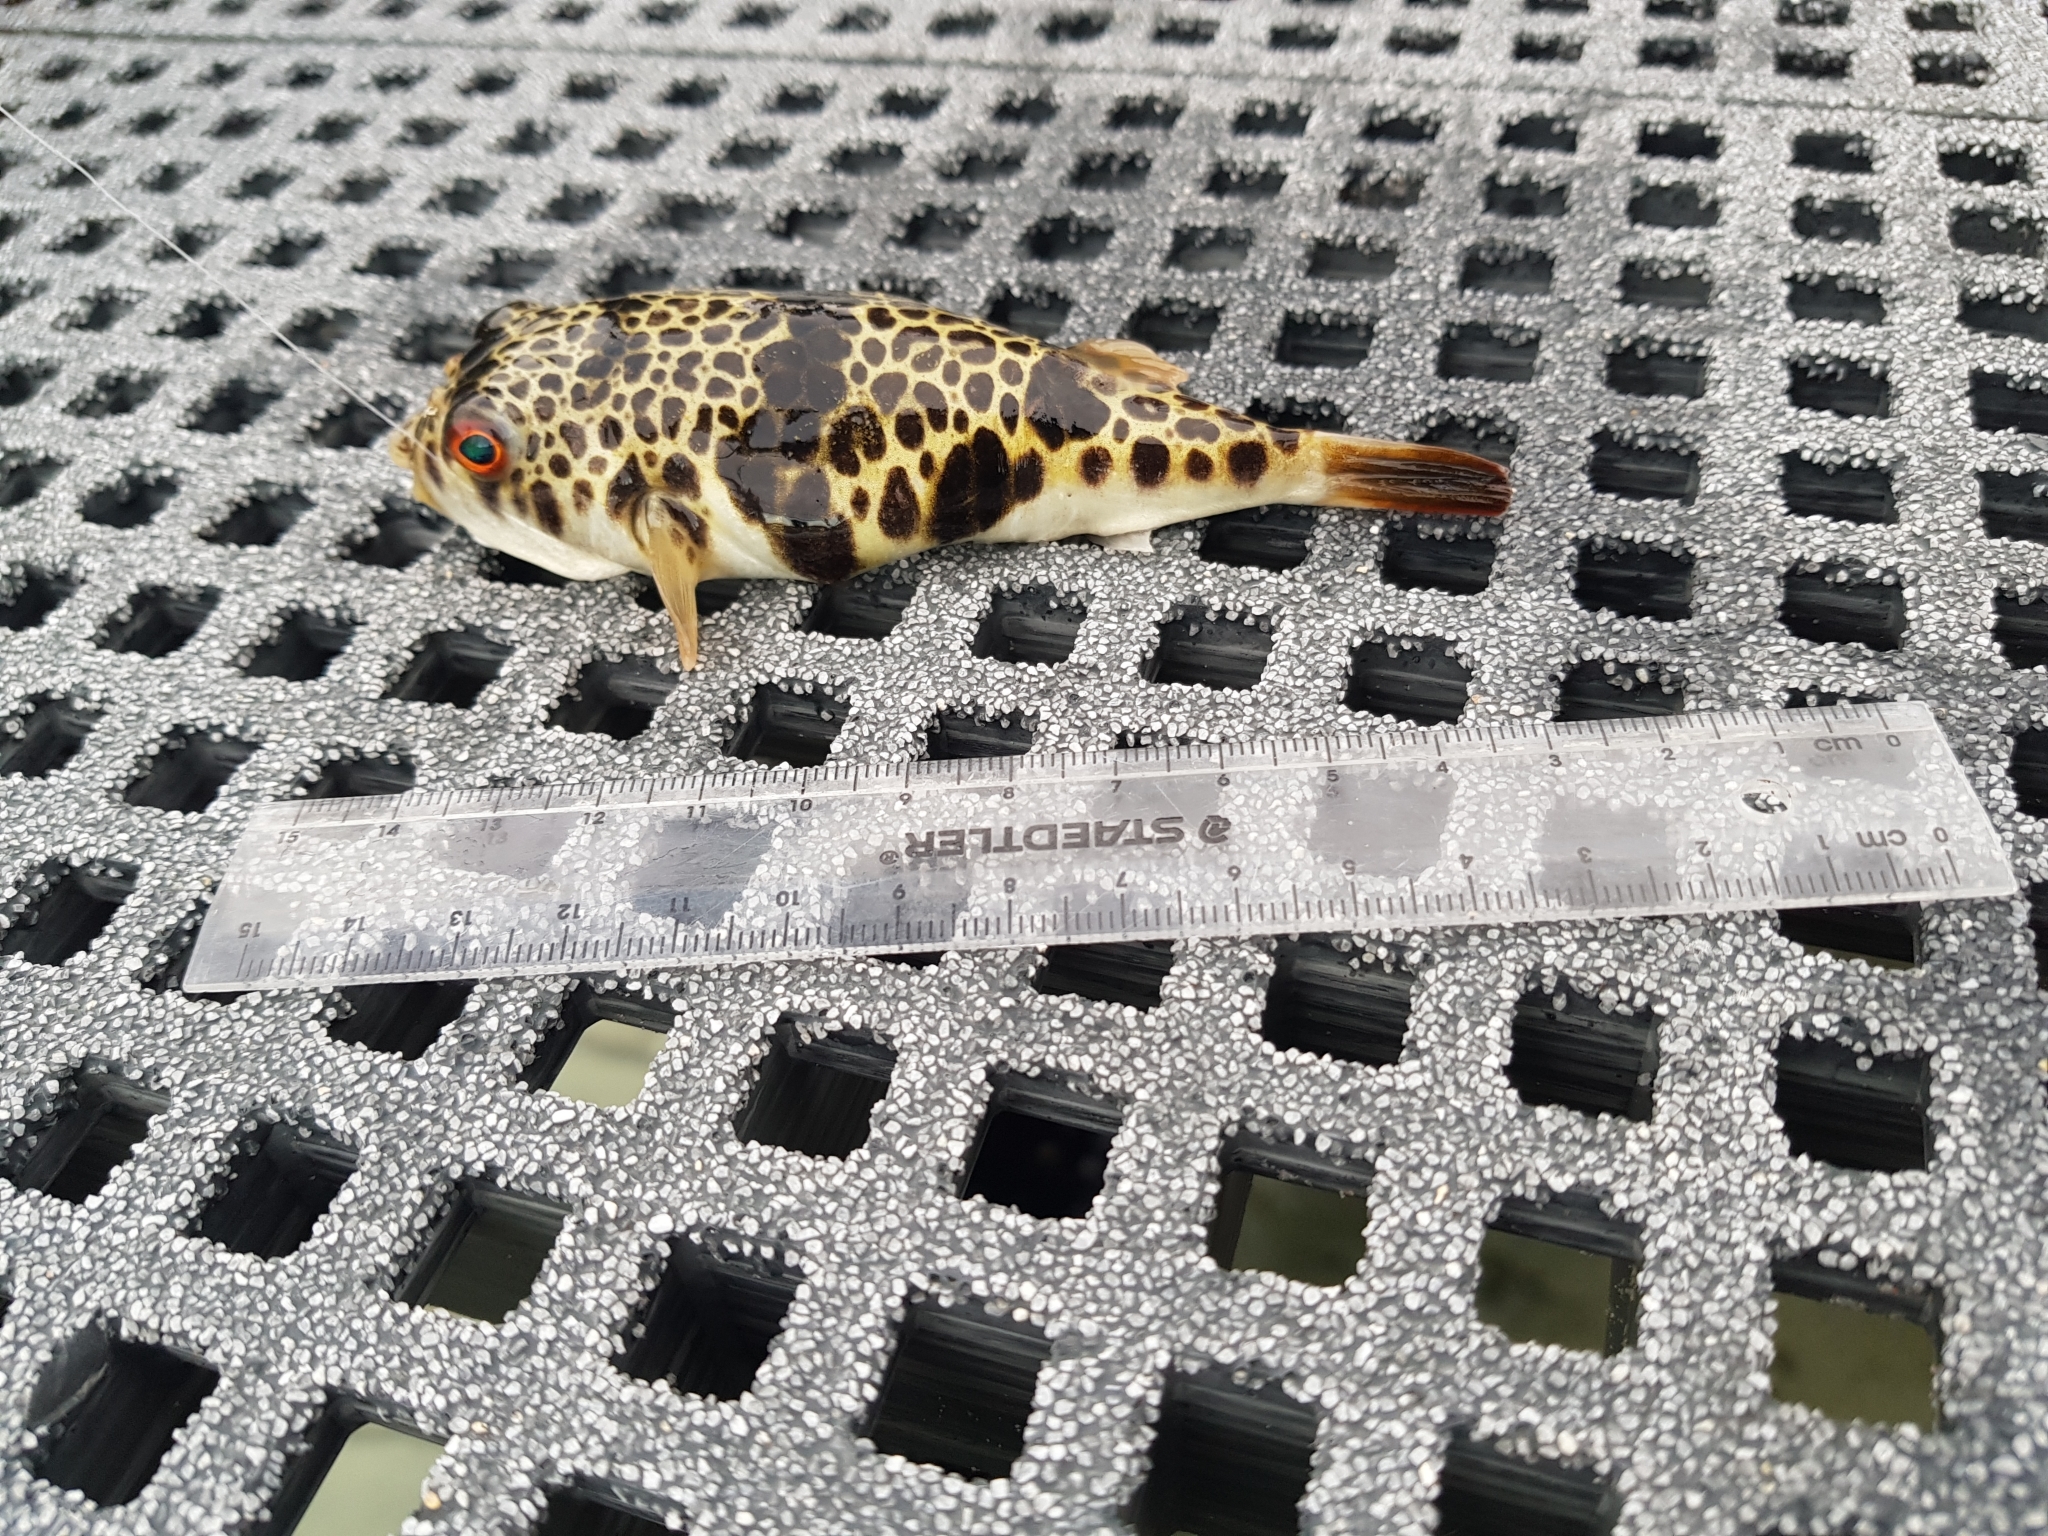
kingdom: Animalia
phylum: Chordata
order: Tetraodontiformes
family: Tetraodontidae
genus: Tetractenos
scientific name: Tetractenos glaber
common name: Smooth toadfish
